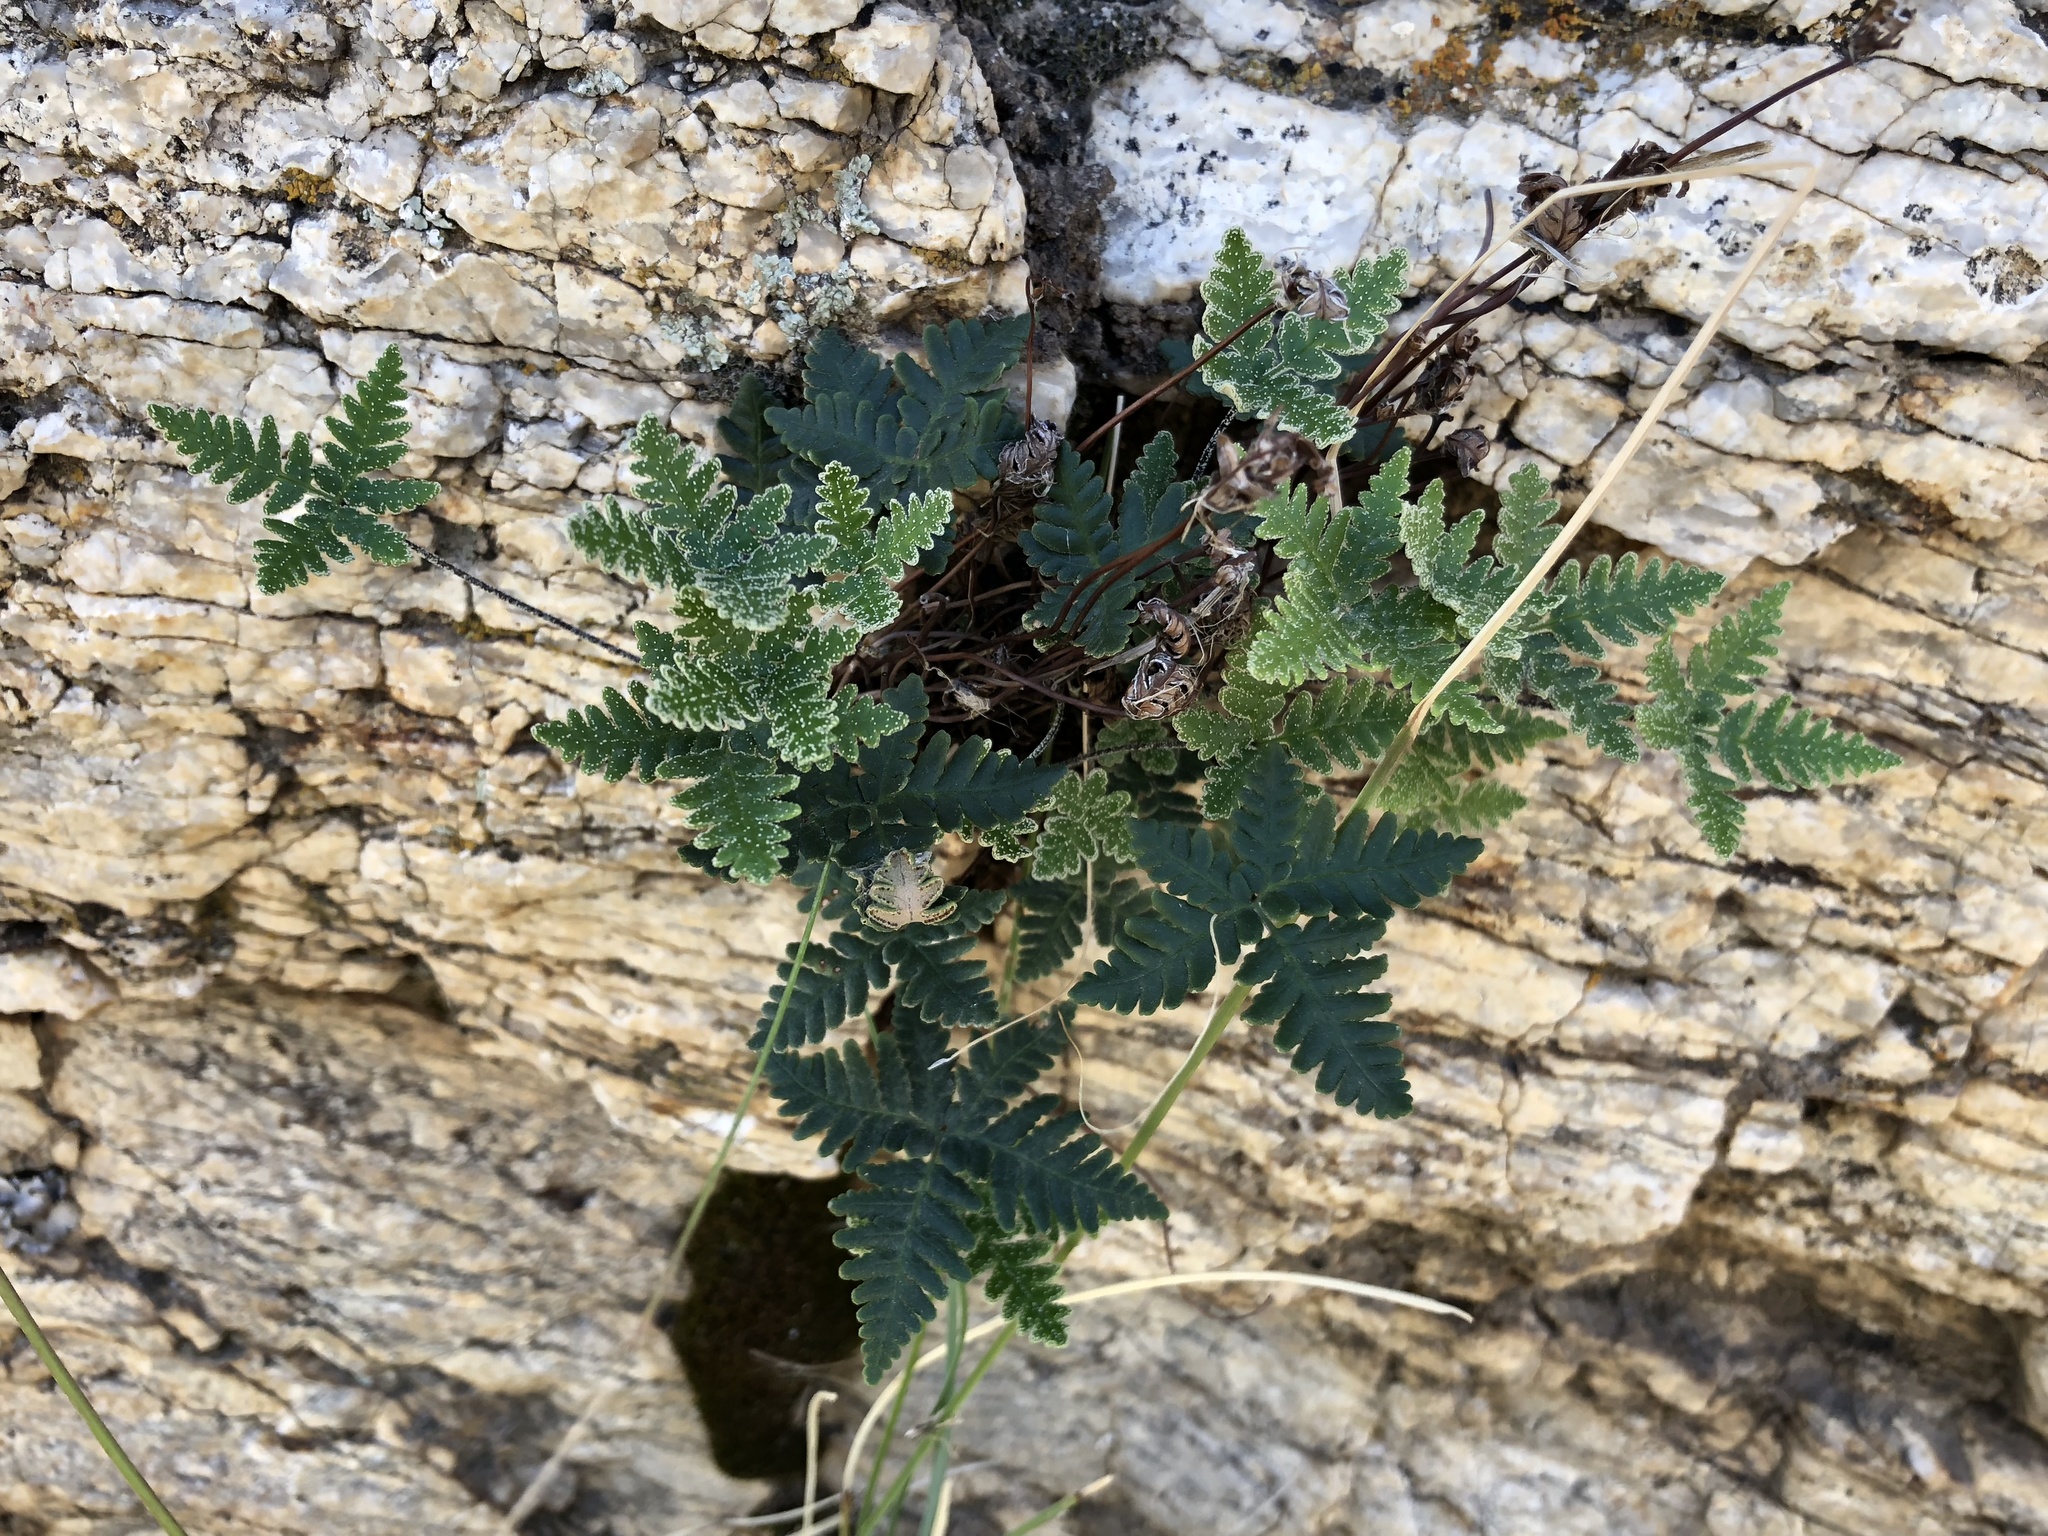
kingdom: Plantae
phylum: Tracheophyta
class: Polypodiopsida
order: Polypodiales
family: Pteridaceae
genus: Notholaena
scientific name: Notholaena standleyi
